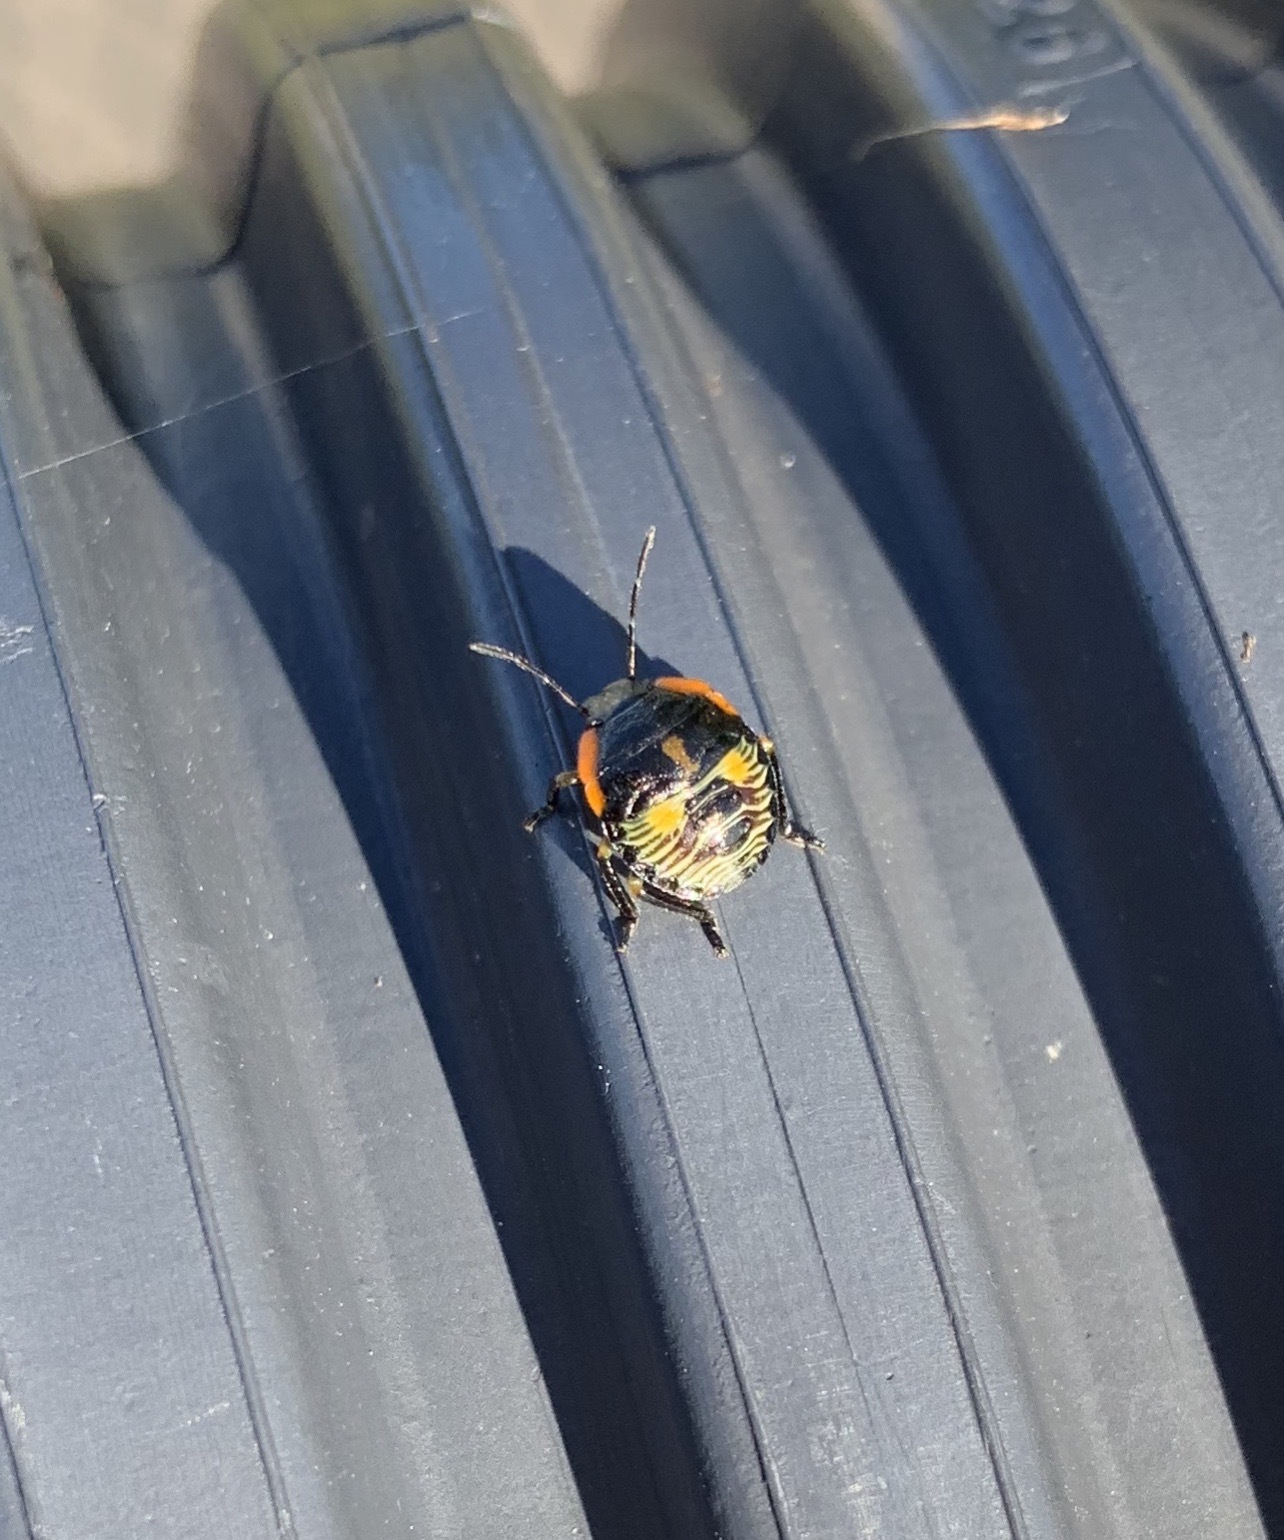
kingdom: Animalia
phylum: Arthropoda
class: Insecta
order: Hemiptera
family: Pentatomidae
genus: Chinavia
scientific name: Chinavia hilaris
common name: Green stink bug
